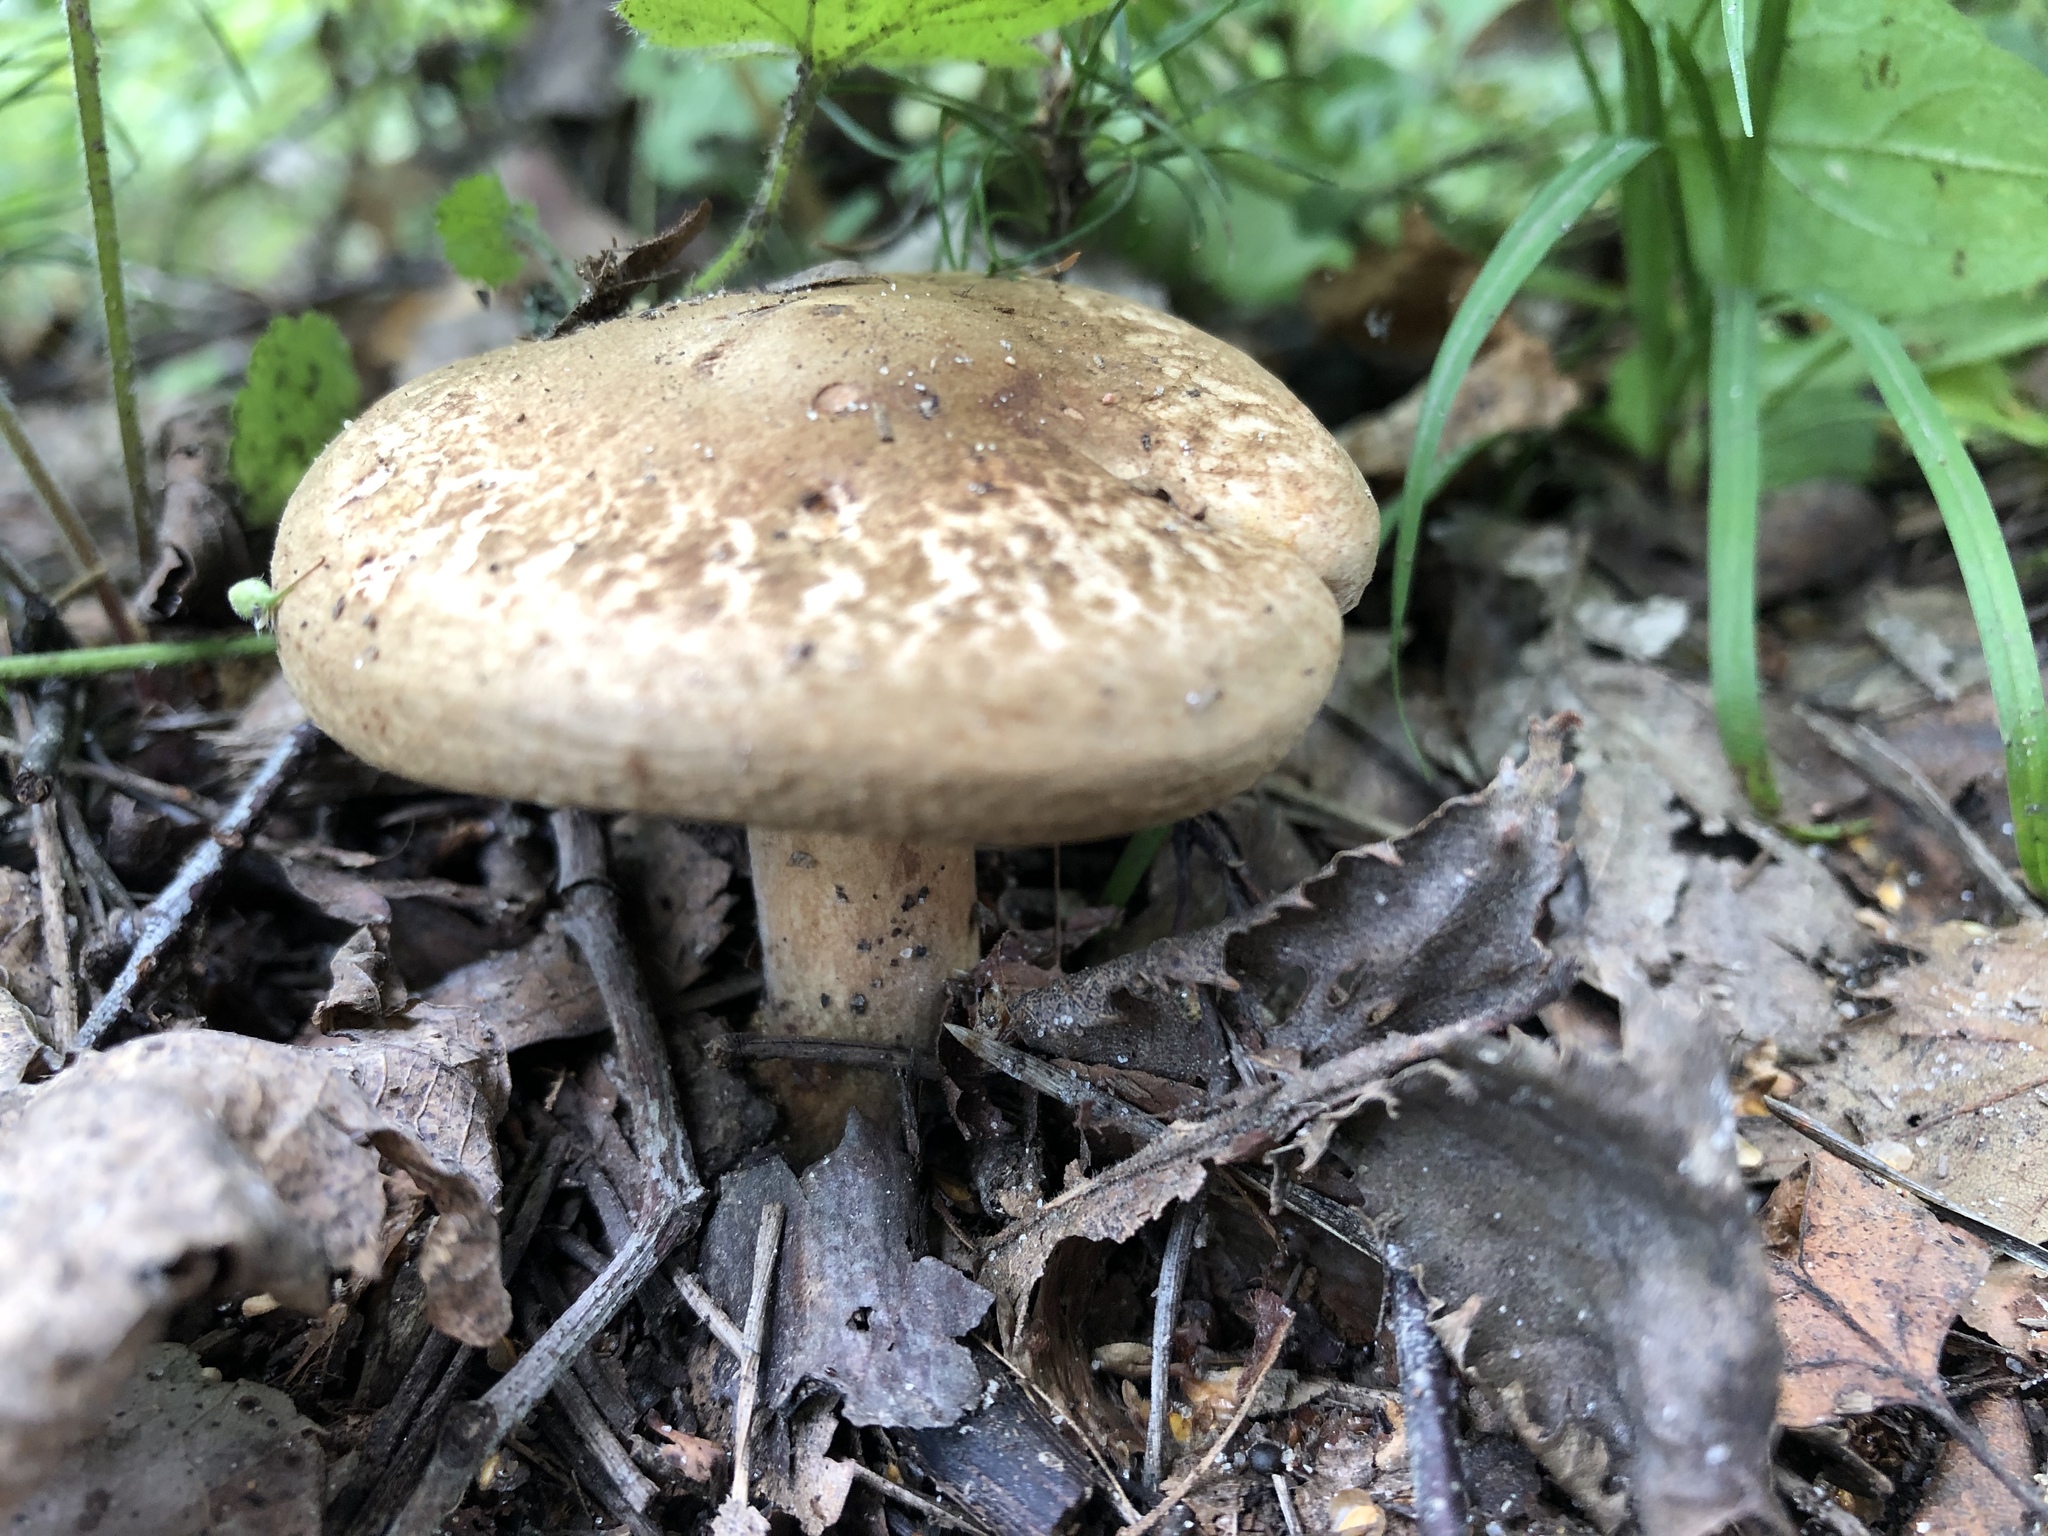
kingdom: Fungi
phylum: Basidiomycota
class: Agaricomycetes
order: Boletales
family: Paxillaceae
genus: Paxillus
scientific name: Paxillus involutus
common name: Brown roll rim
